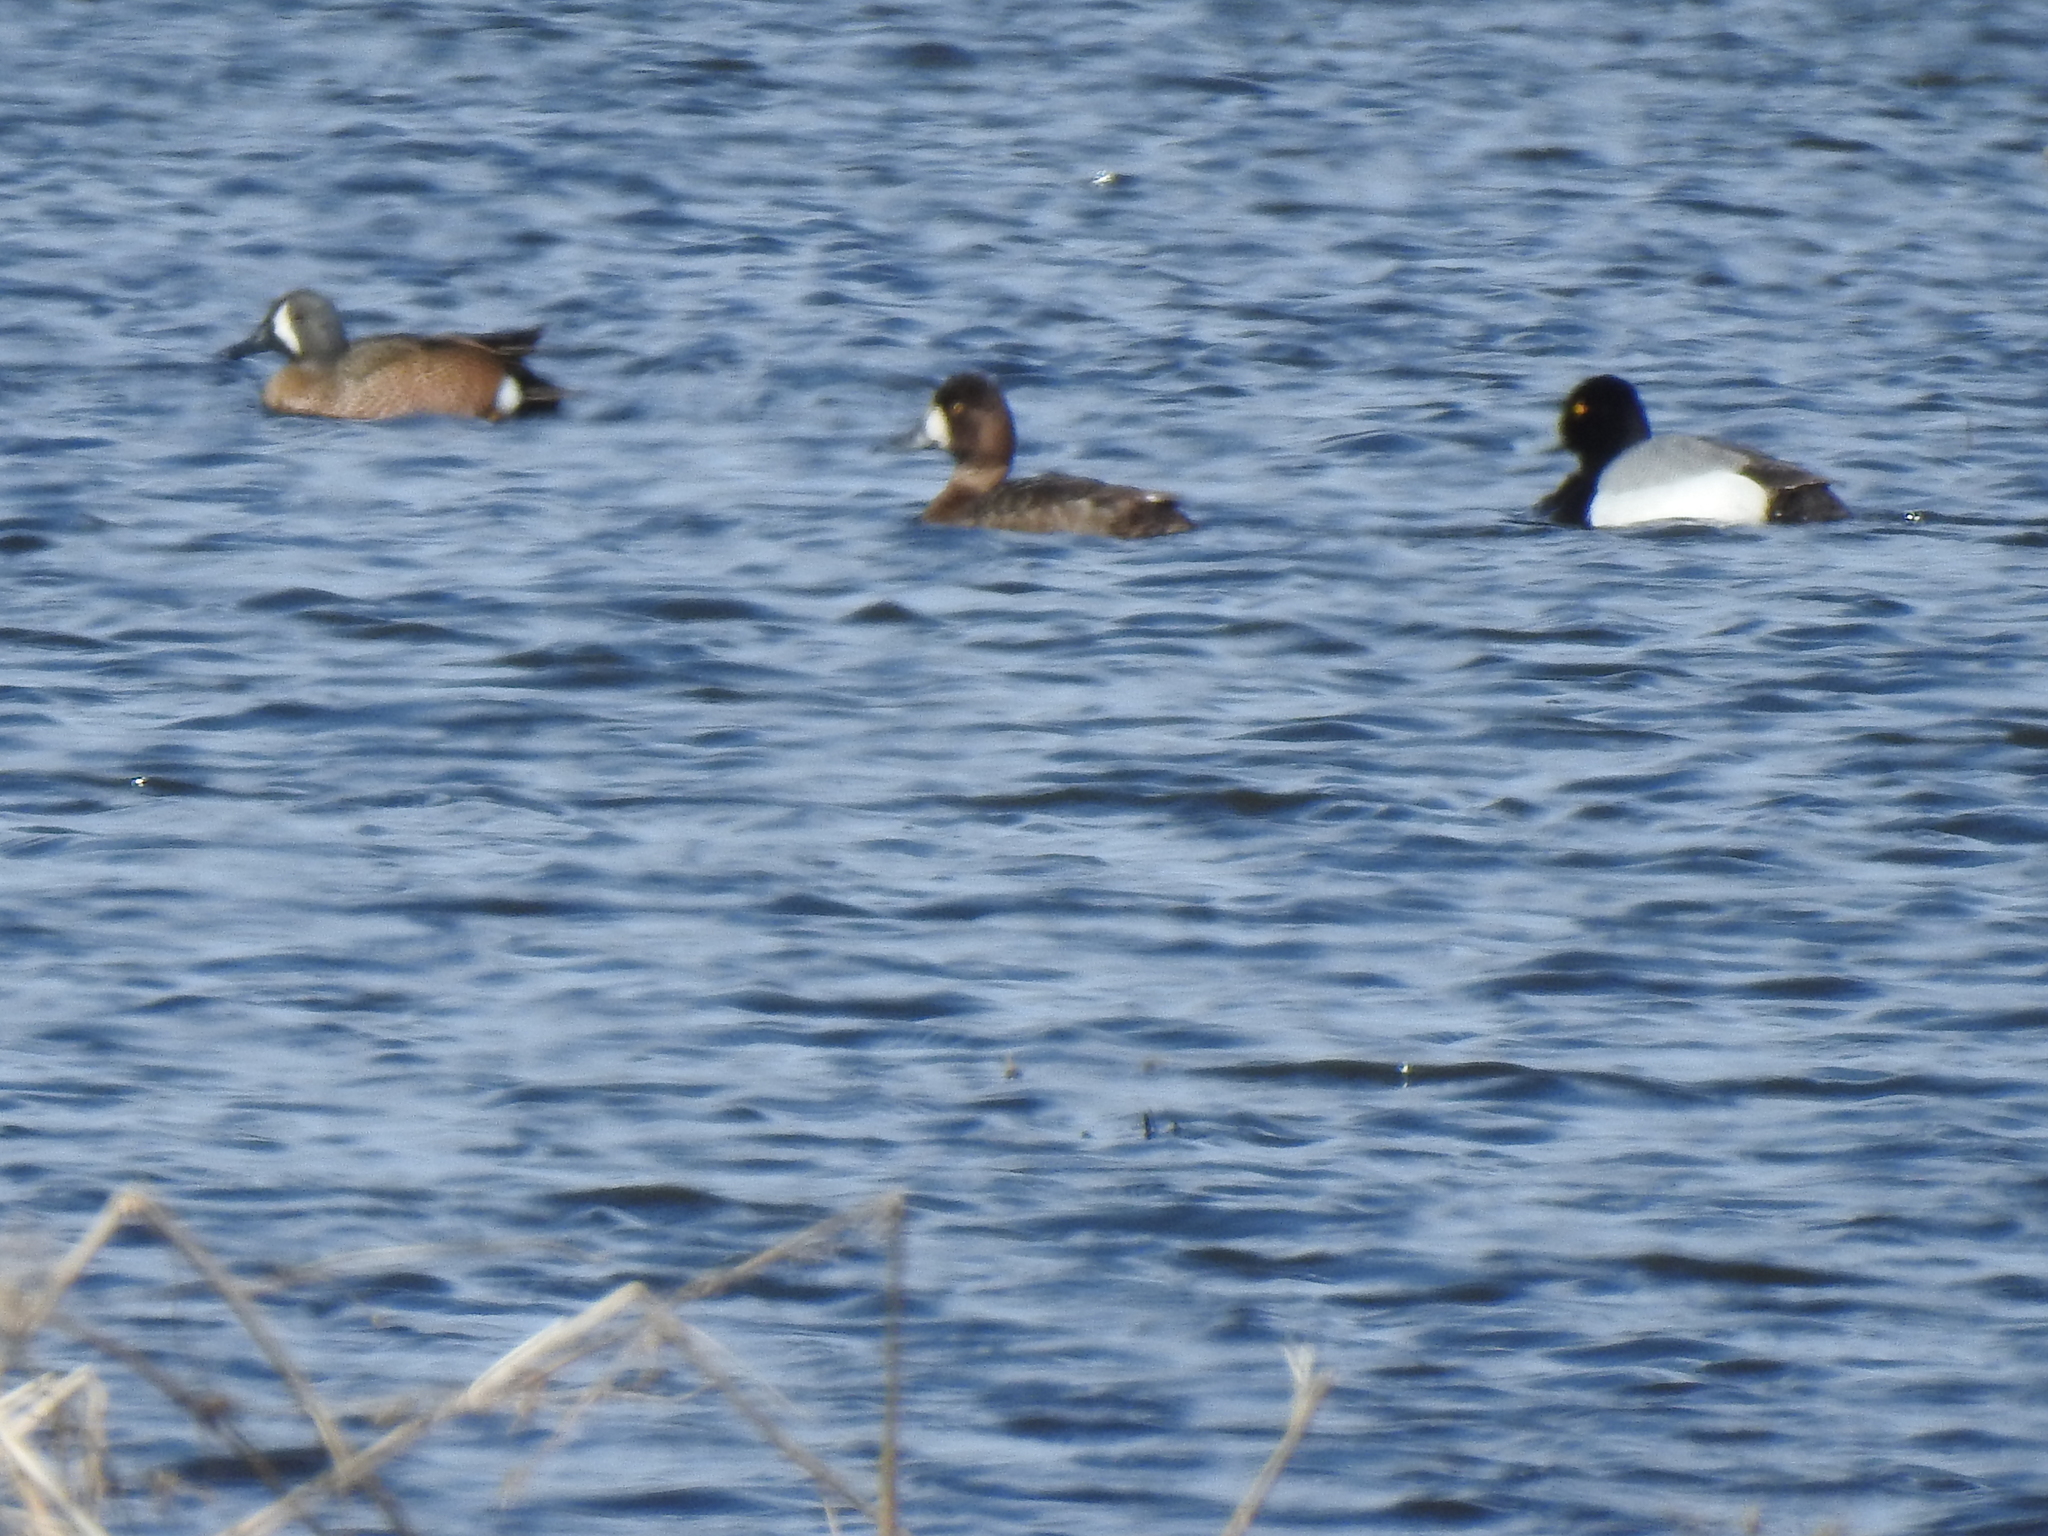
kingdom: Animalia
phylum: Chordata
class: Aves
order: Anseriformes
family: Anatidae
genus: Aythya
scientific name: Aythya affinis
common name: Lesser scaup
